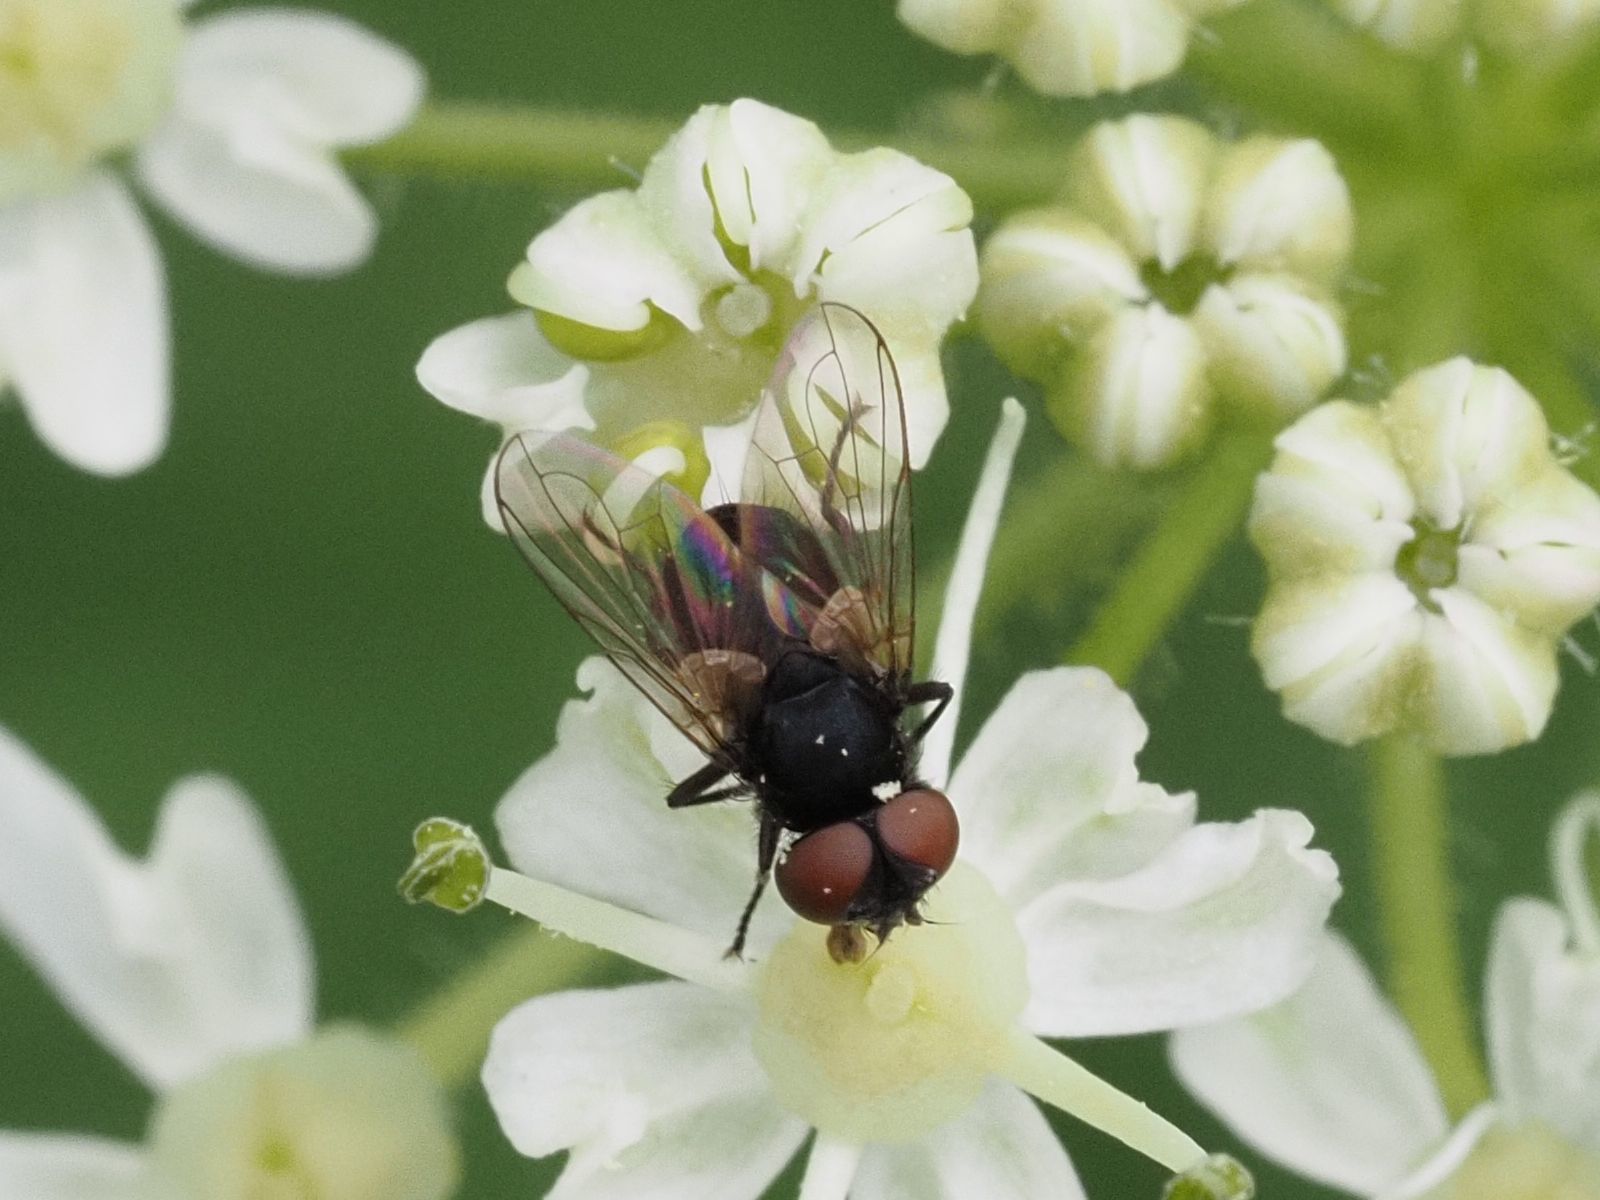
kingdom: Animalia
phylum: Arthropoda
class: Insecta
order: Diptera
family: Tachinidae
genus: Phasia
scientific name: Phasia barbifrons
